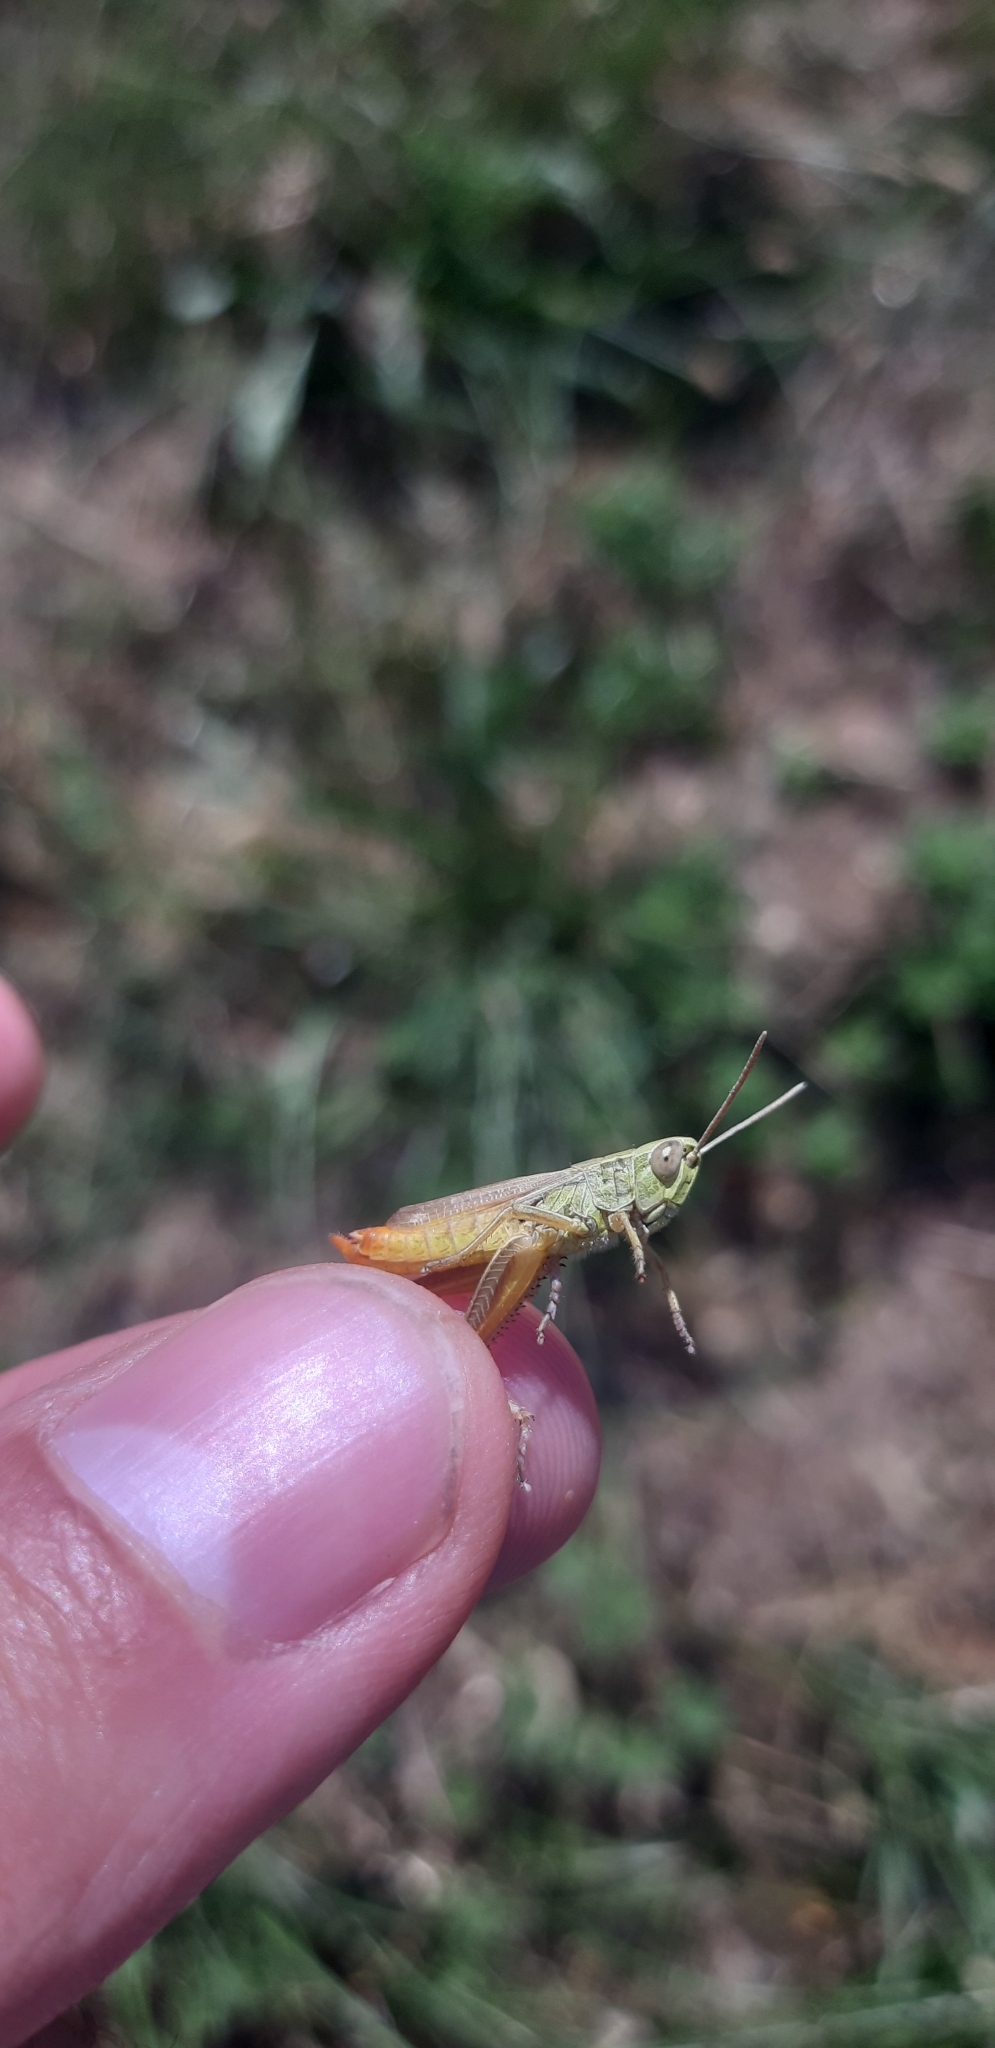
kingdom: Animalia
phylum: Arthropoda
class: Insecta
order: Orthoptera
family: Acrididae
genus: Euchorthippus
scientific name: Euchorthippus declivus
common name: Common straw grasshopper
